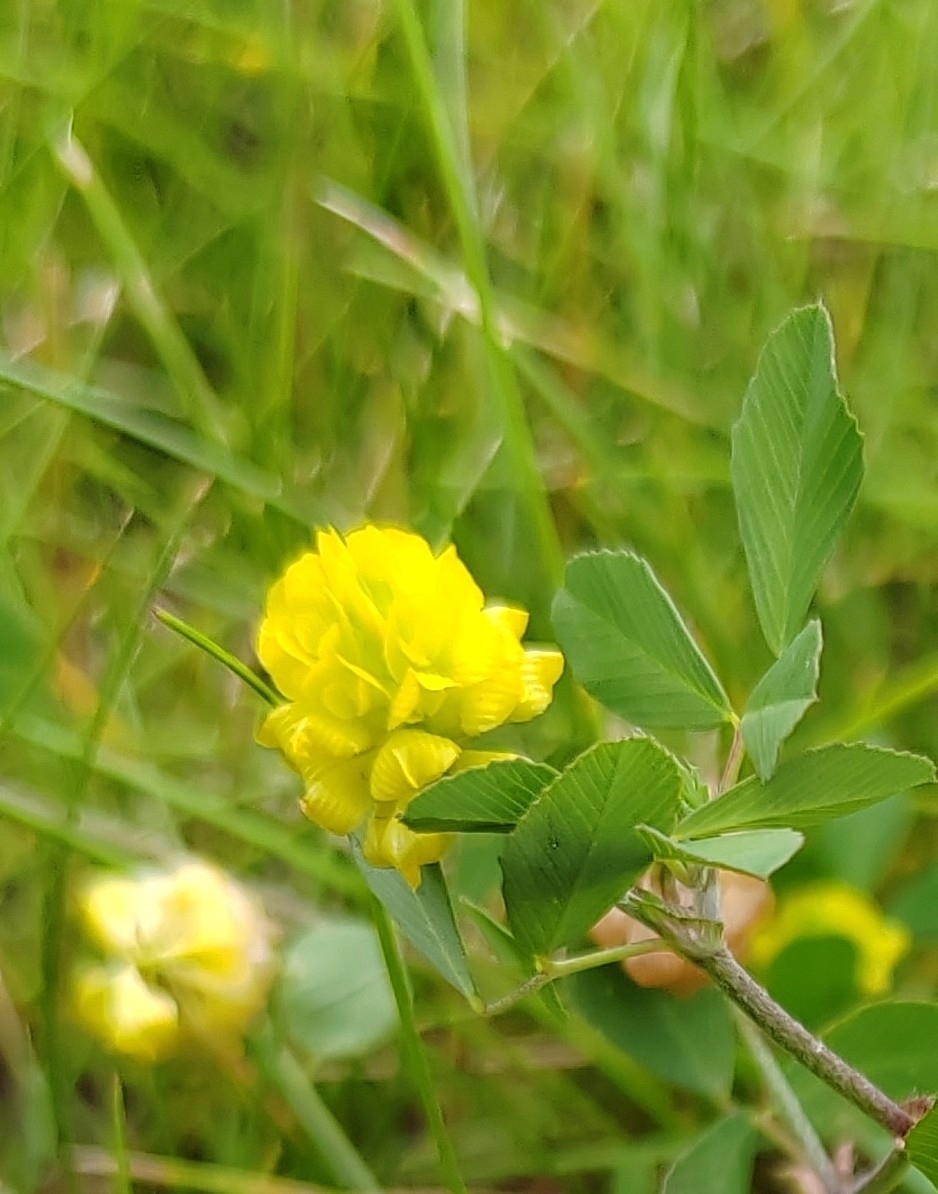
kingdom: Plantae
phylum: Tracheophyta
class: Magnoliopsida
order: Fabales
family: Fabaceae
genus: Trifolium
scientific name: Trifolium campestre
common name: Field clover
